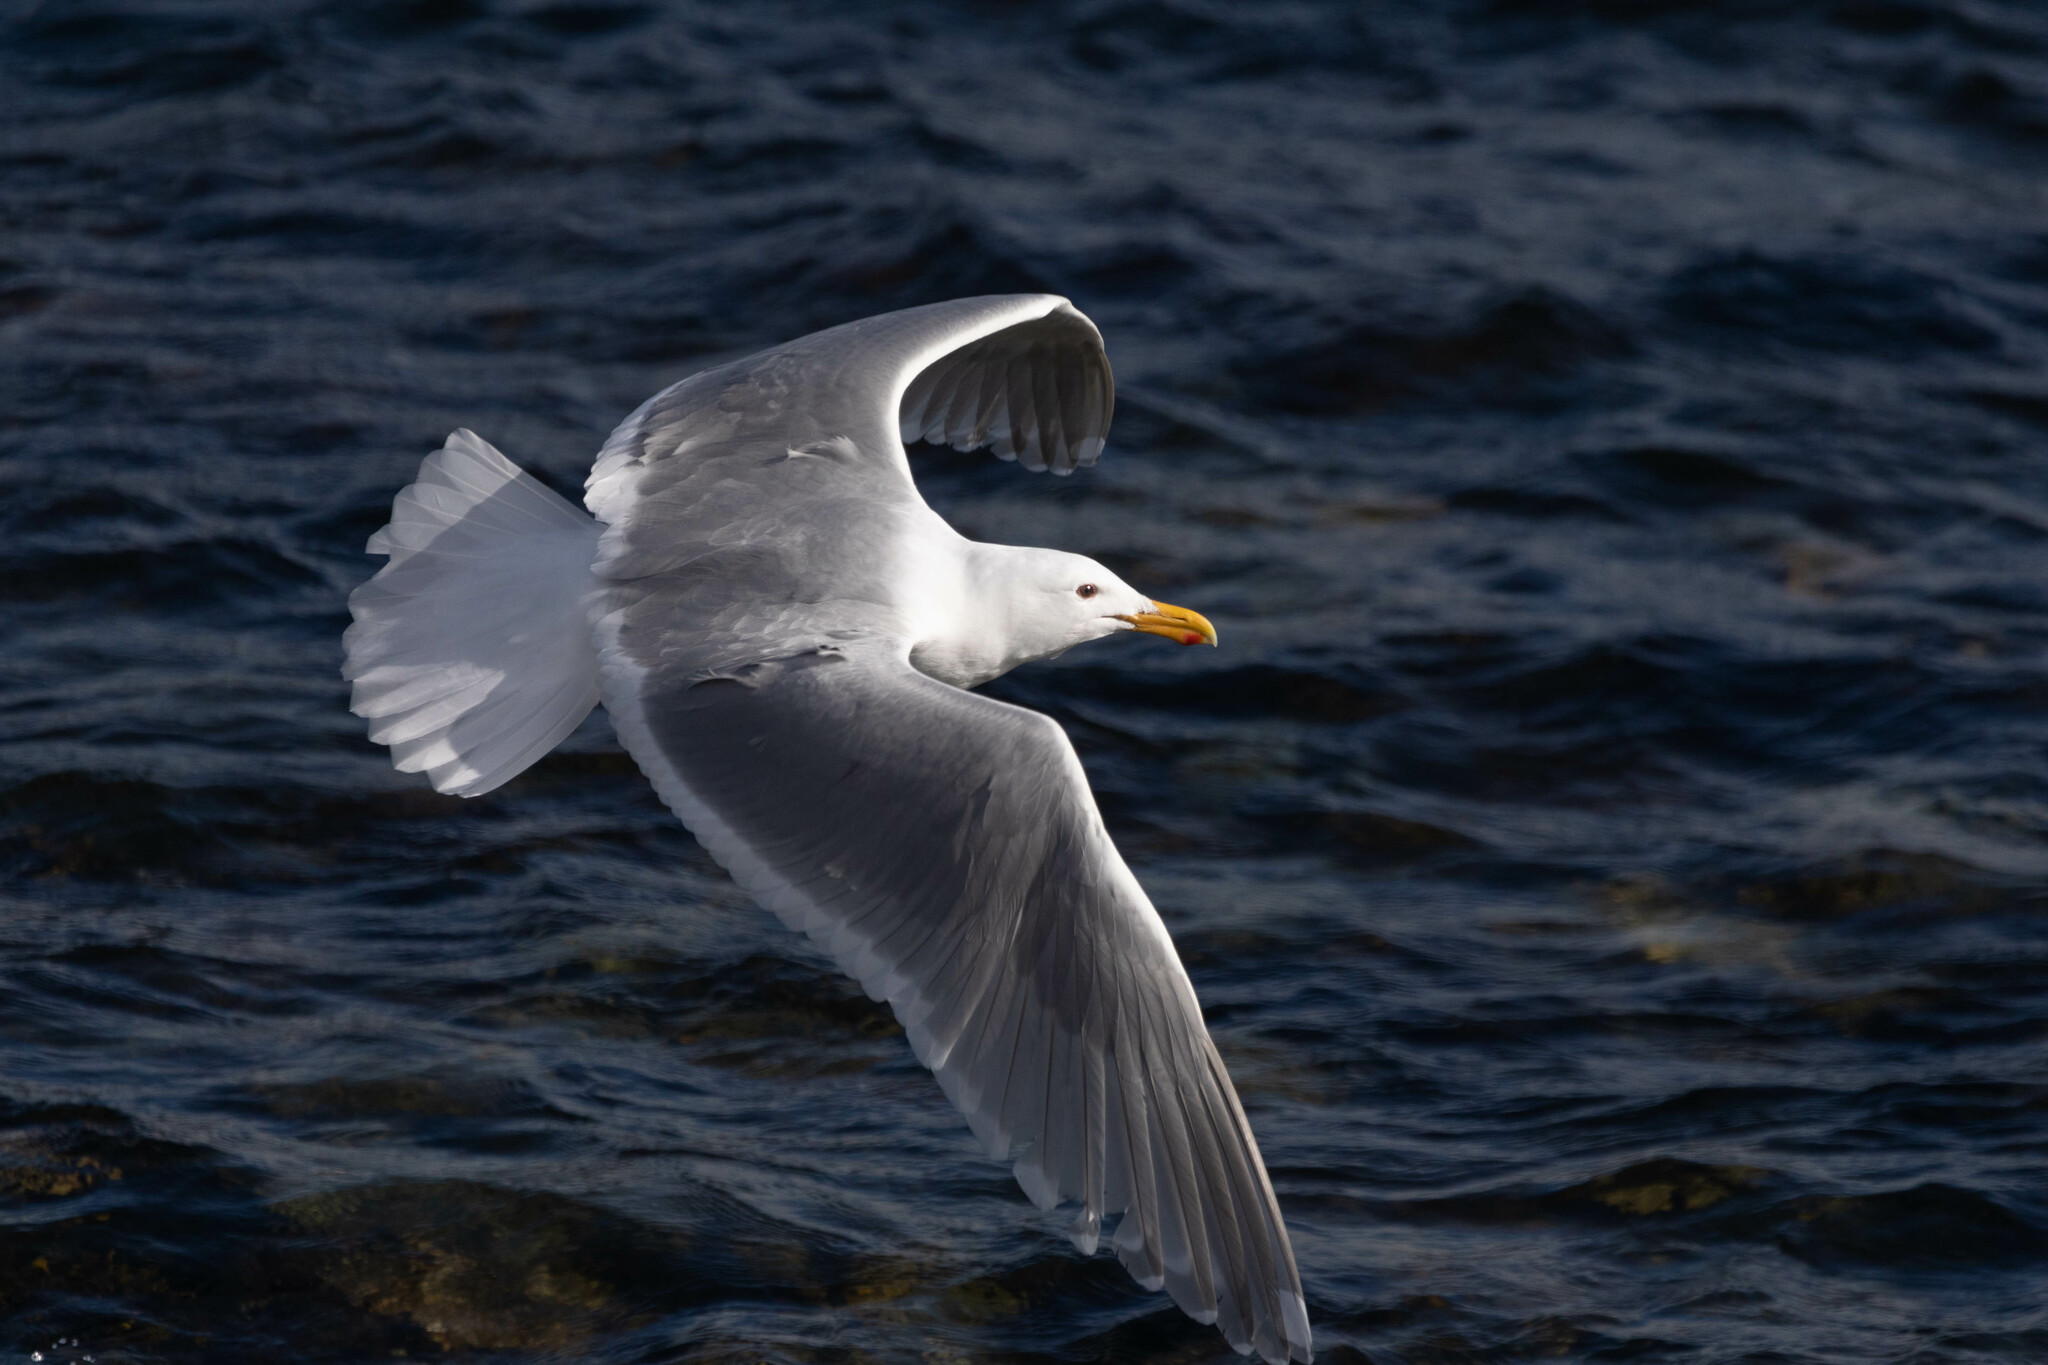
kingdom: Animalia
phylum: Chordata
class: Aves
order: Charadriiformes
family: Laridae
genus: Larus
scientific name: Larus
